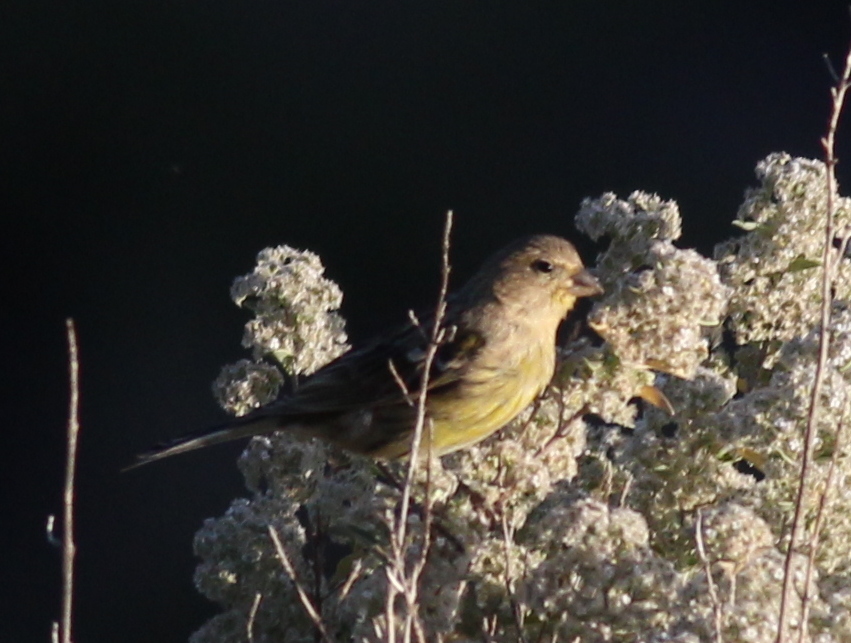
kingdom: Animalia
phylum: Chordata
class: Aves
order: Passeriformes
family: Fringillidae
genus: Serinus
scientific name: Serinus canaria
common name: Atlantic canary
